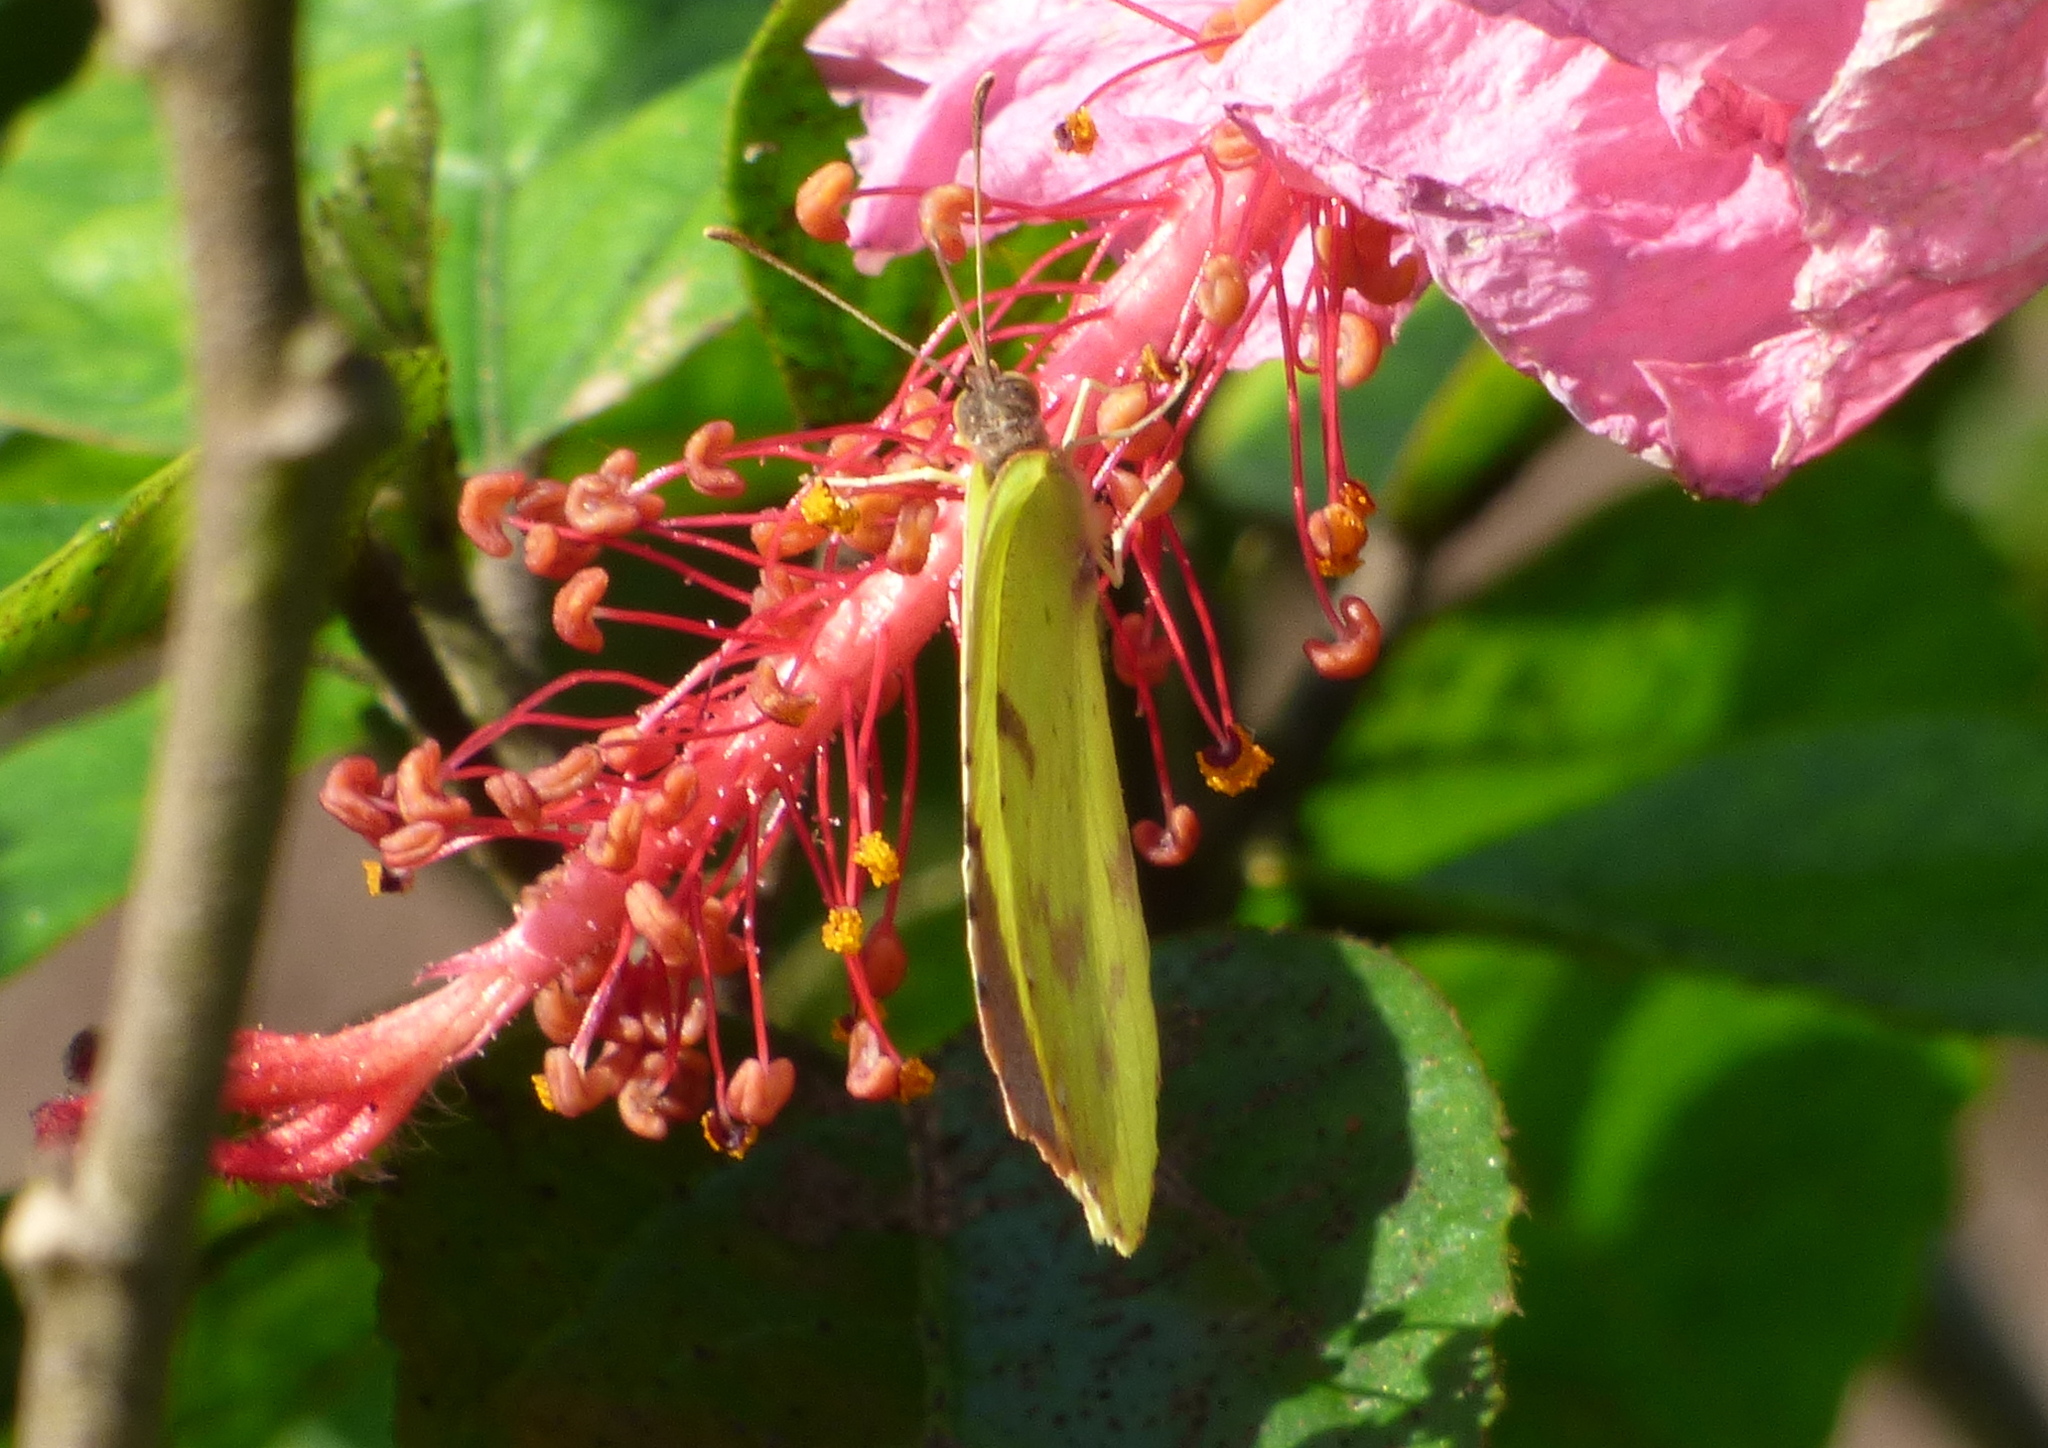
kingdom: Animalia
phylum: Arthropoda
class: Insecta
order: Lepidoptera
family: Pieridae
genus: Teriocolias
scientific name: Teriocolias
